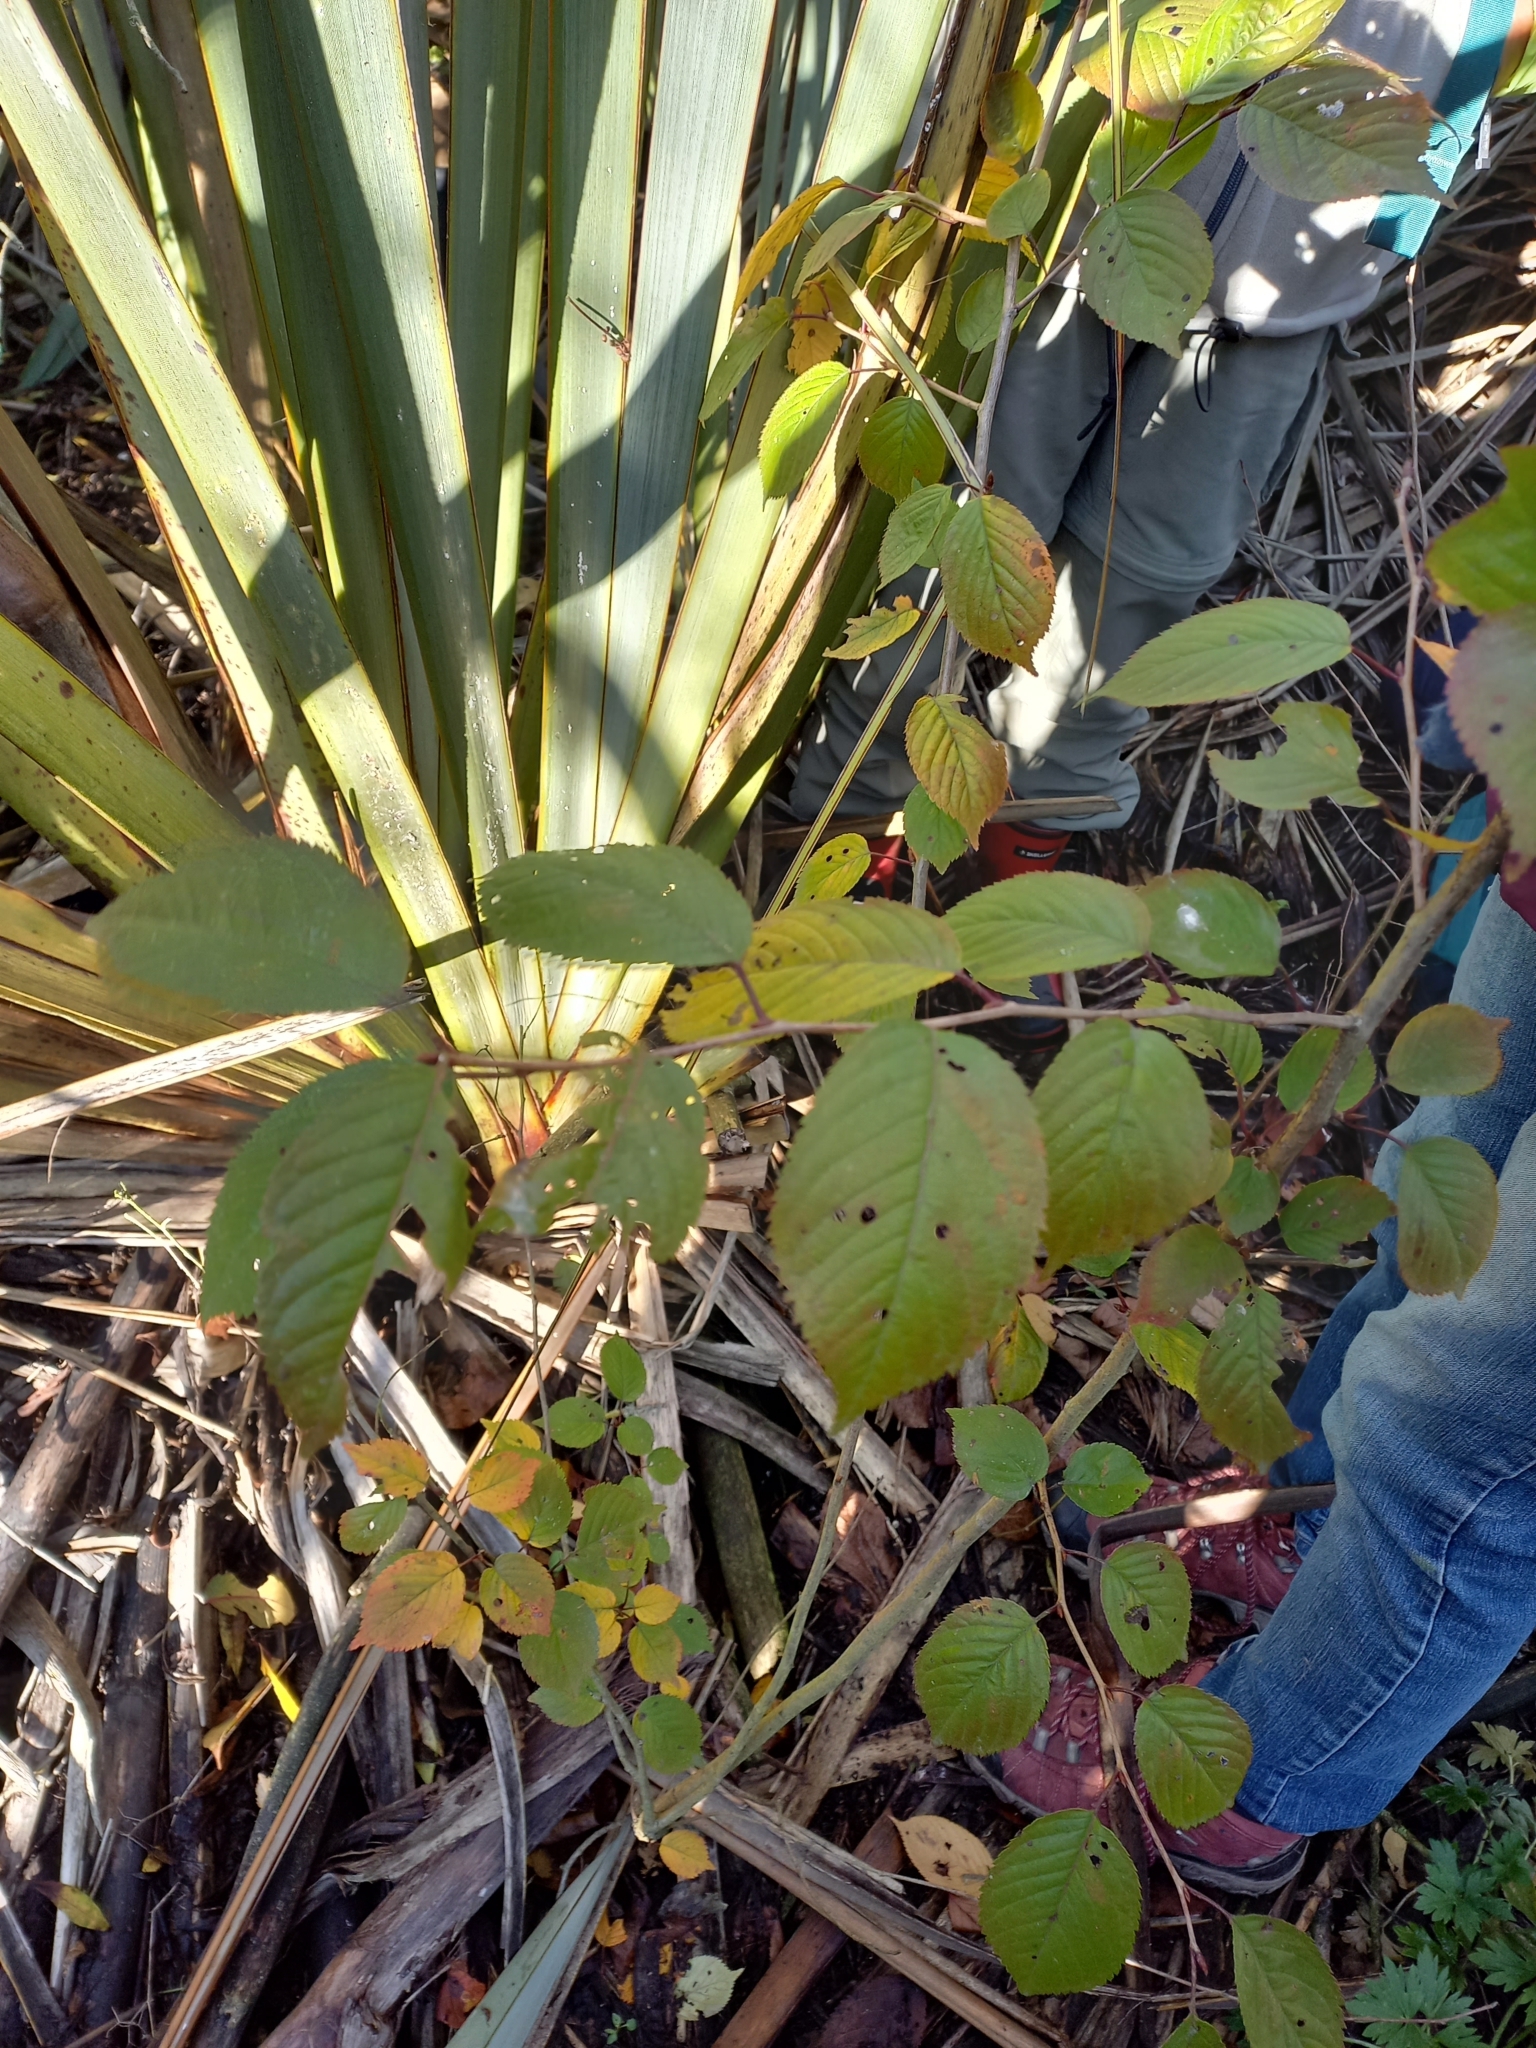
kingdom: Plantae
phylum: Tracheophyta
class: Magnoliopsida
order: Rosales
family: Rosaceae
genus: Prunus
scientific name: Prunus subhirtella
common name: Winter-flowering cherry
